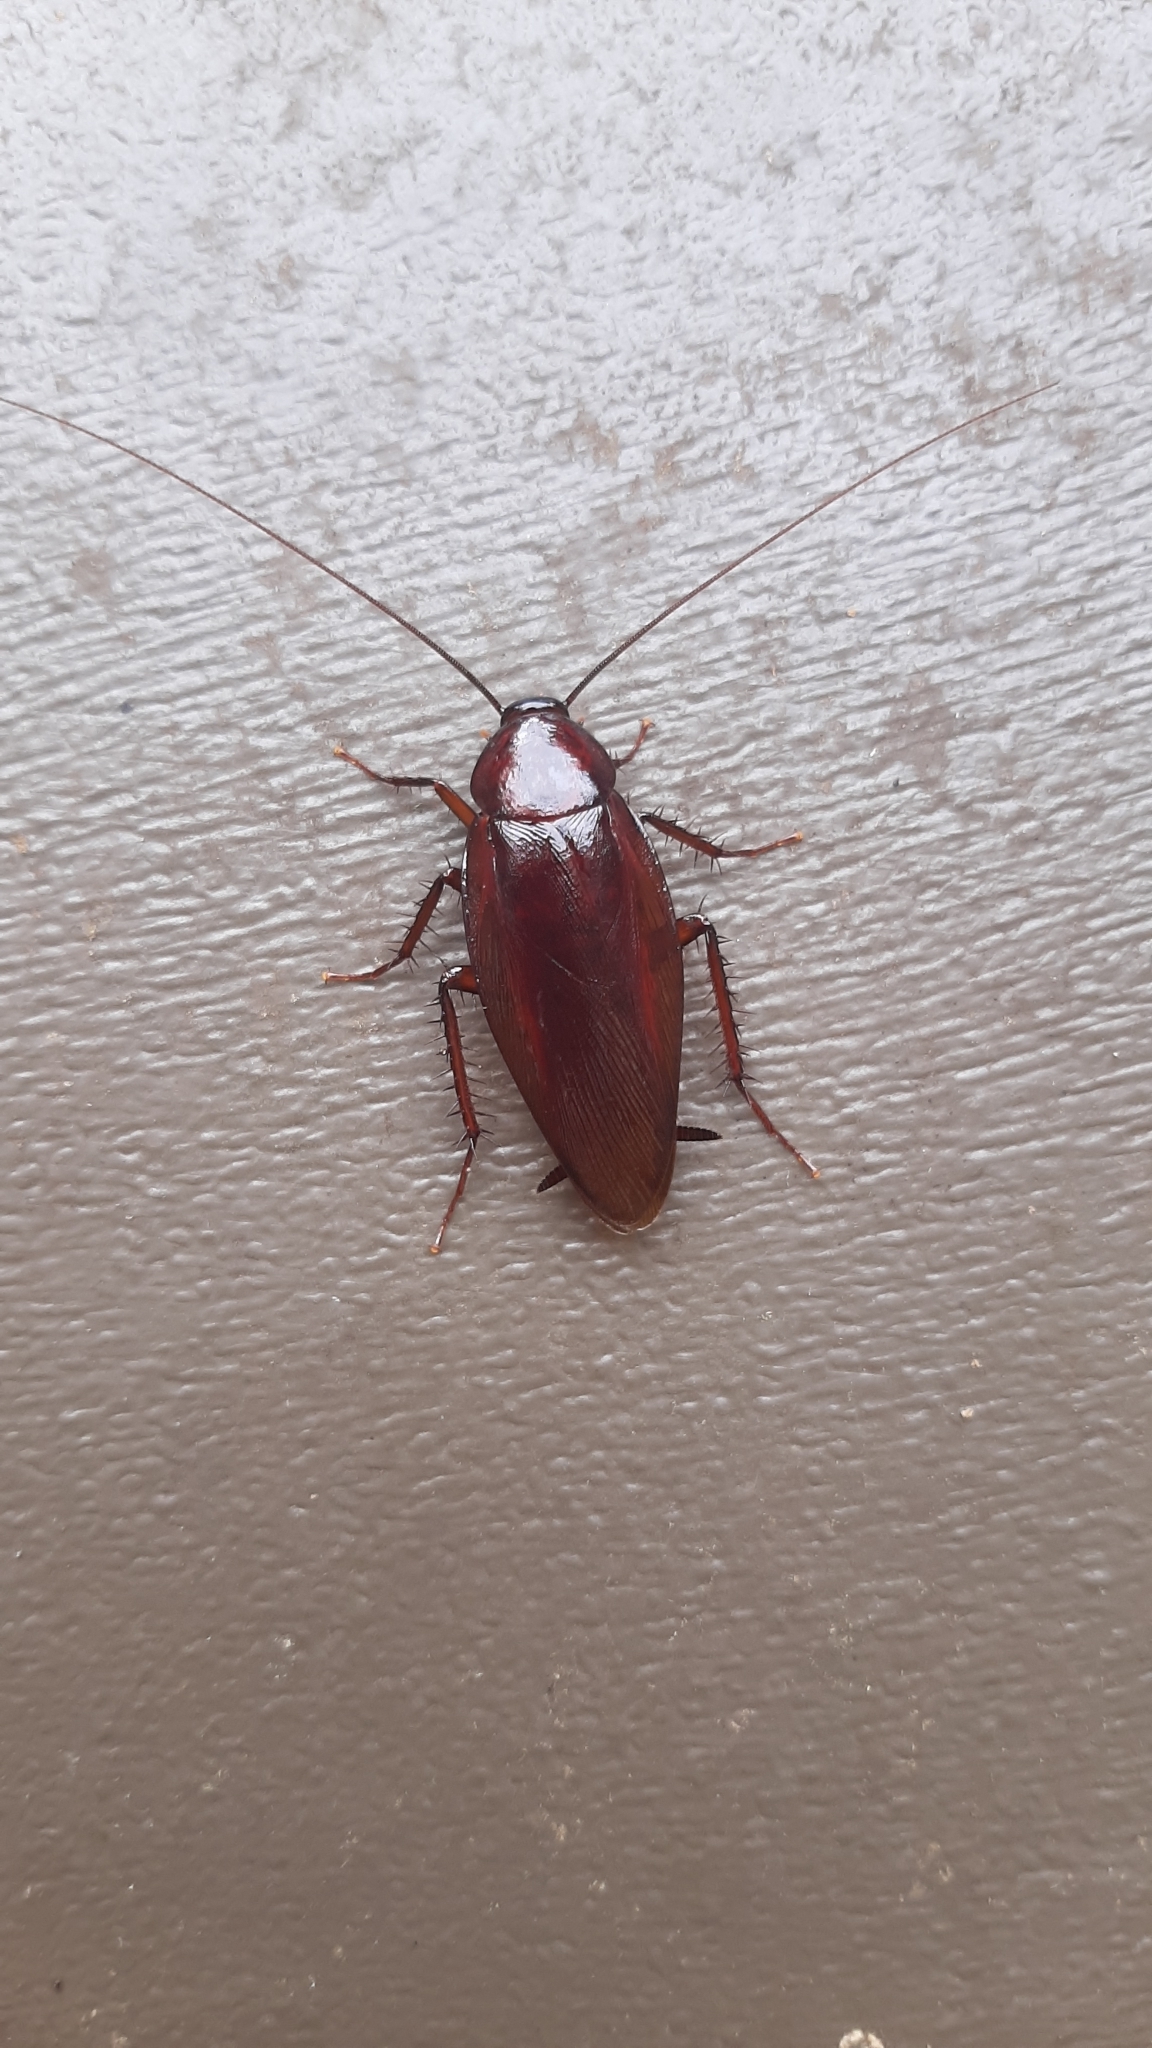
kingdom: Animalia
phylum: Arthropoda
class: Insecta
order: Blattodea
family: Blattidae
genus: Periplaneta
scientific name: Periplaneta fuliginosa
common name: Smokeybrown cockroad
